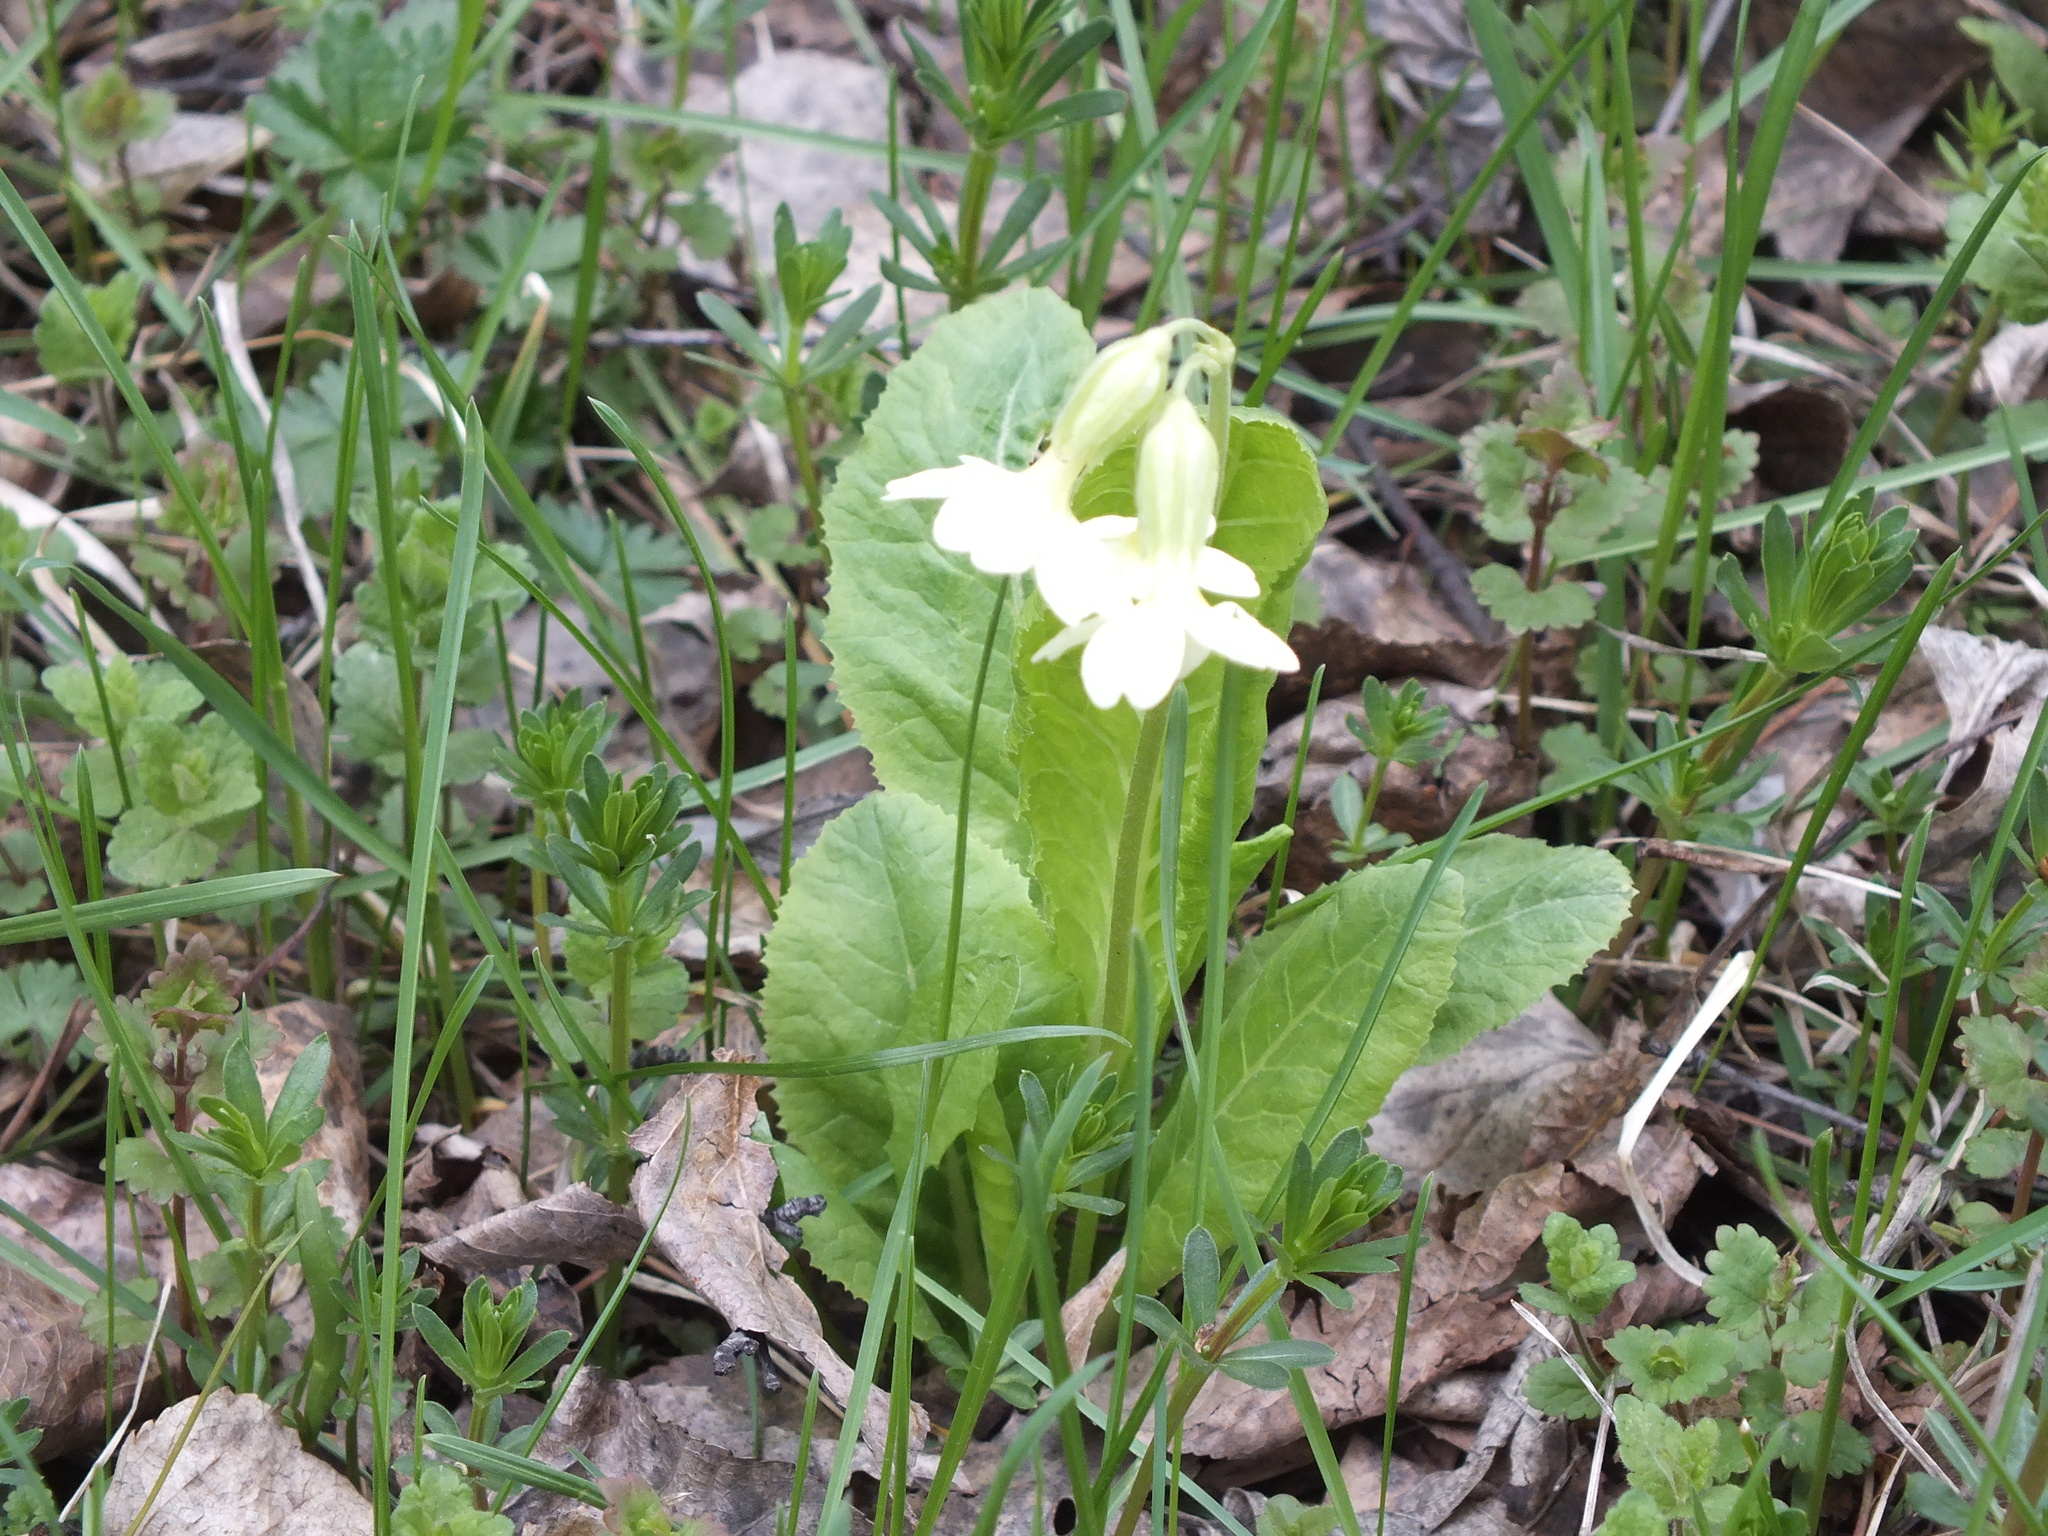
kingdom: Plantae
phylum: Tracheophyta
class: Magnoliopsida
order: Ericales
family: Primulaceae
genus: Primula
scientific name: Primula elatior
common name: Oxlip
